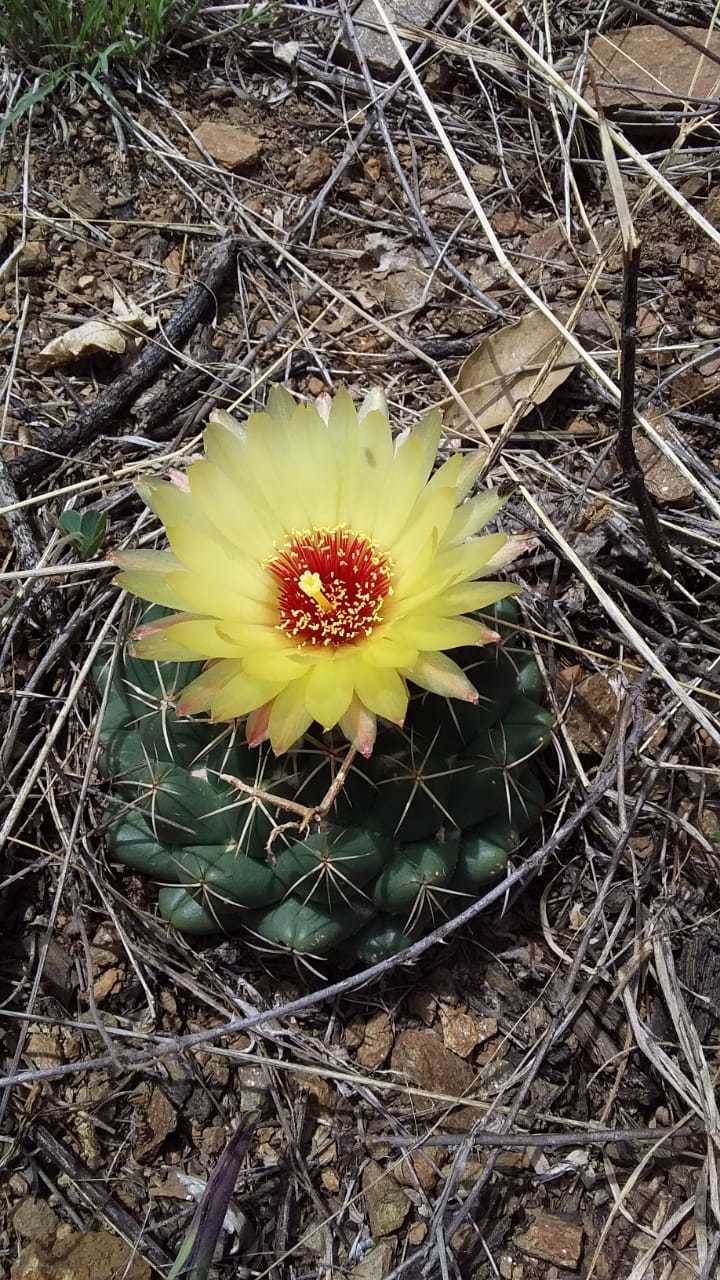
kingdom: Plantae
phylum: Tracheophyta
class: Magnoliopsida
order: Caryophyllales
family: Cactaceae
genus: Coryphantha
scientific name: Coryphantha elephantidens
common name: Elephant's tooth
